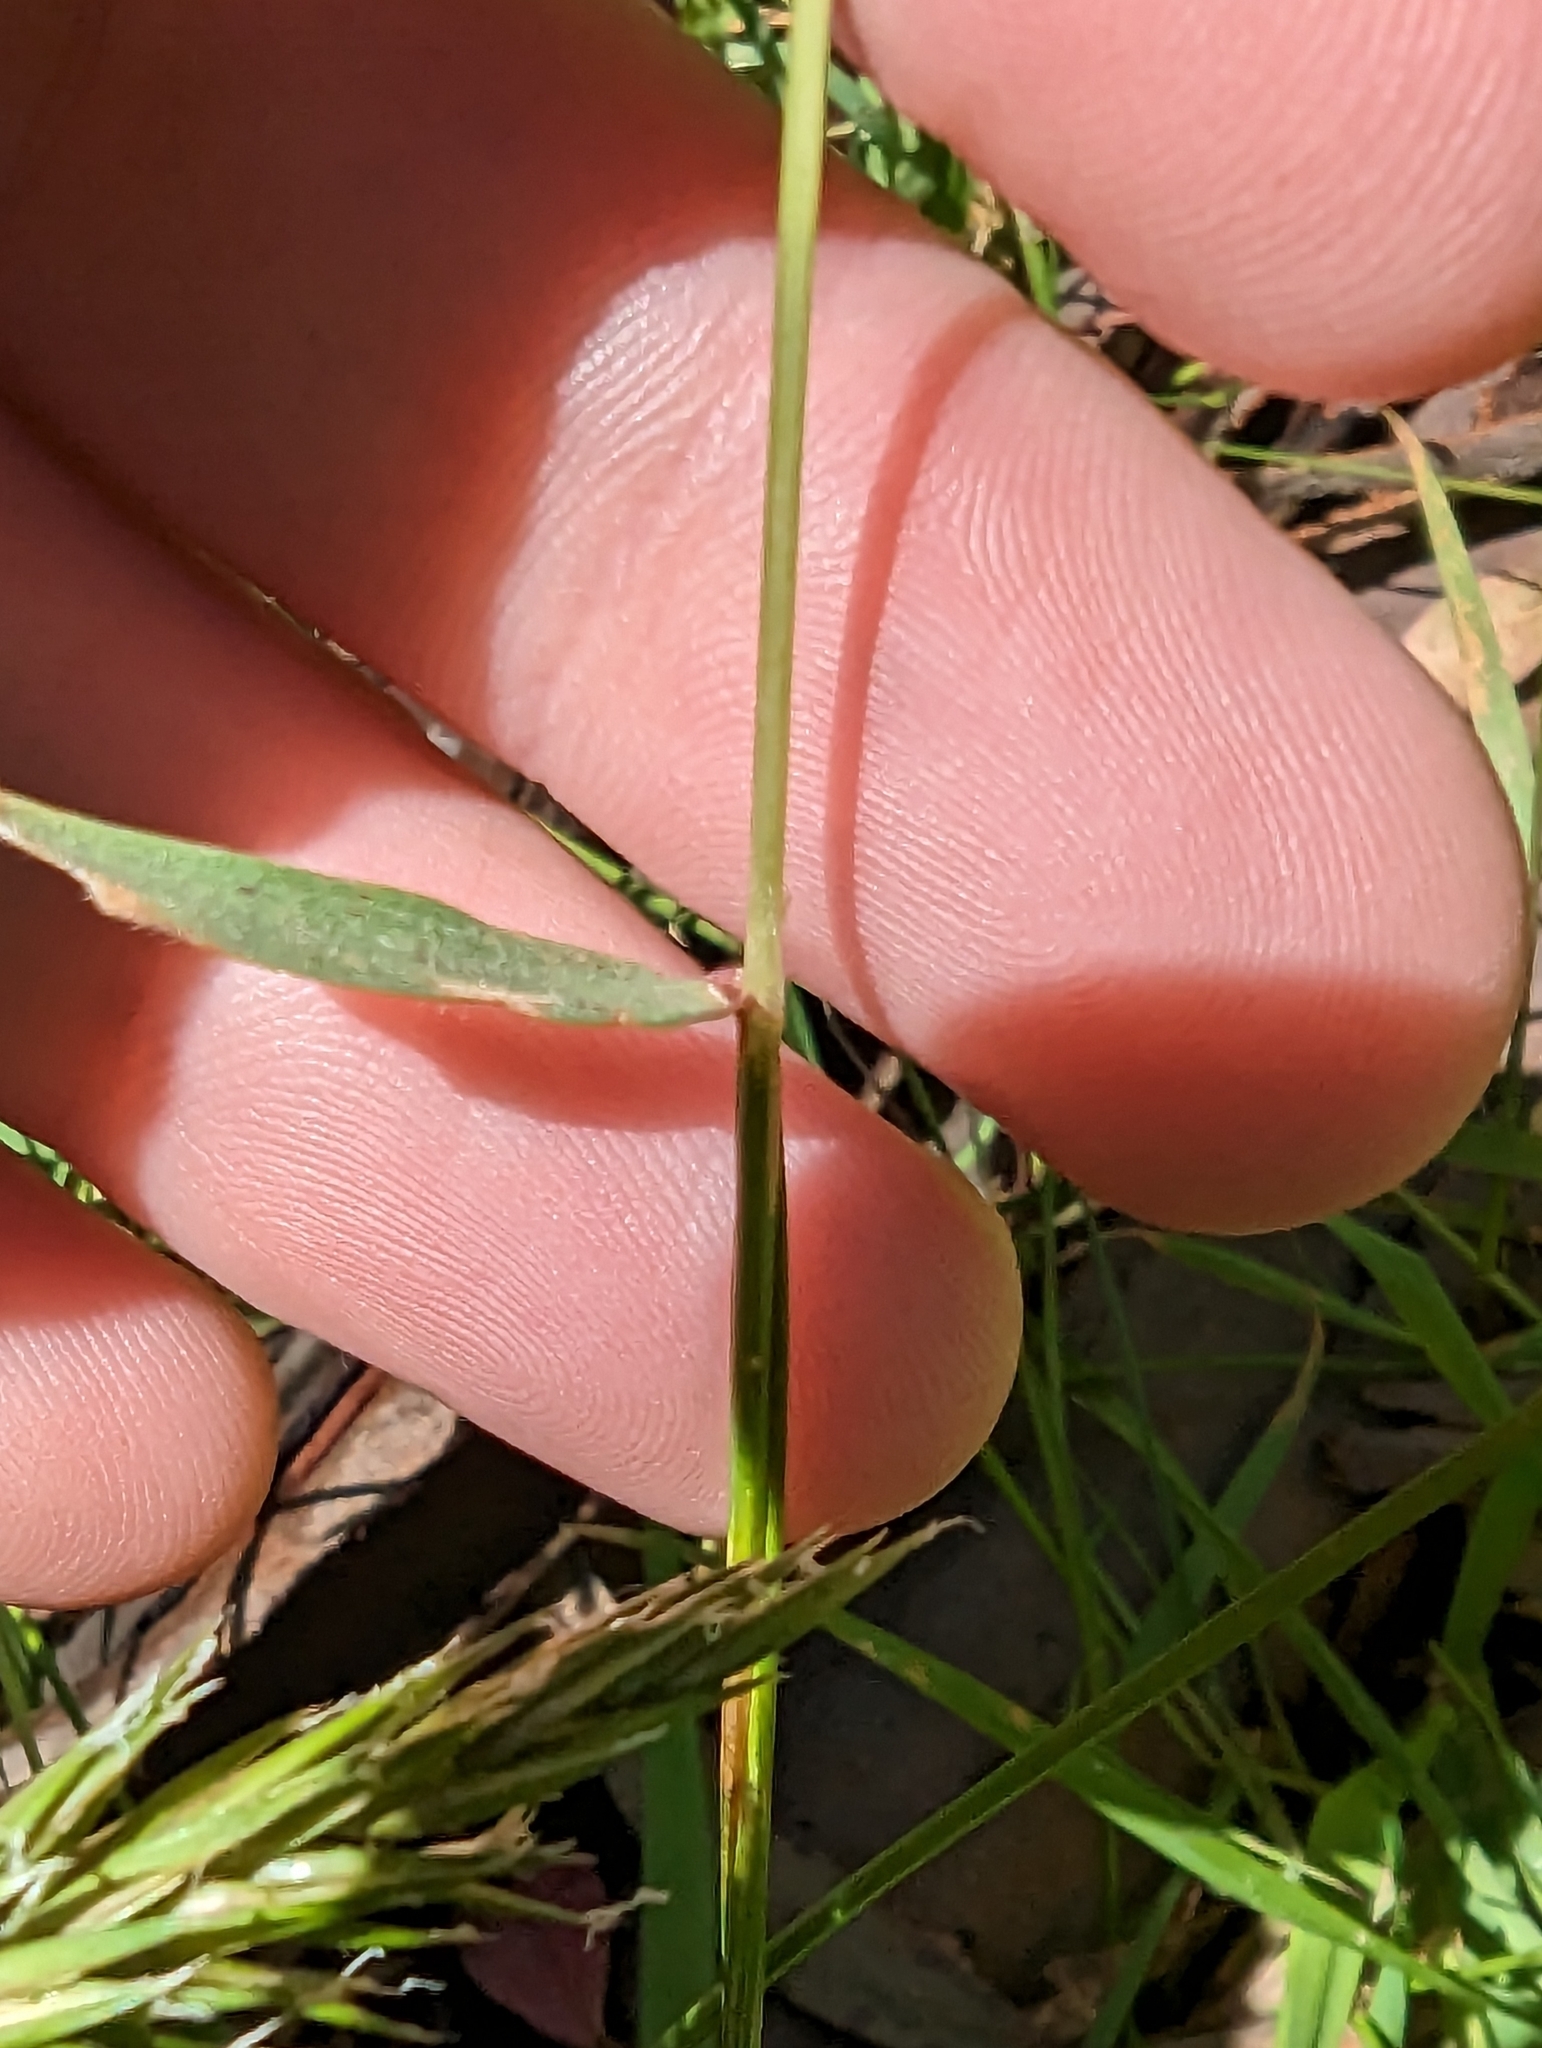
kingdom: Plantae
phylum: Tracheophyta
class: Liliopsida
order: Poales
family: Poaceae
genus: Anthoxanthum
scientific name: Anthoxanthum odoratum
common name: Sweet vernalgrass
